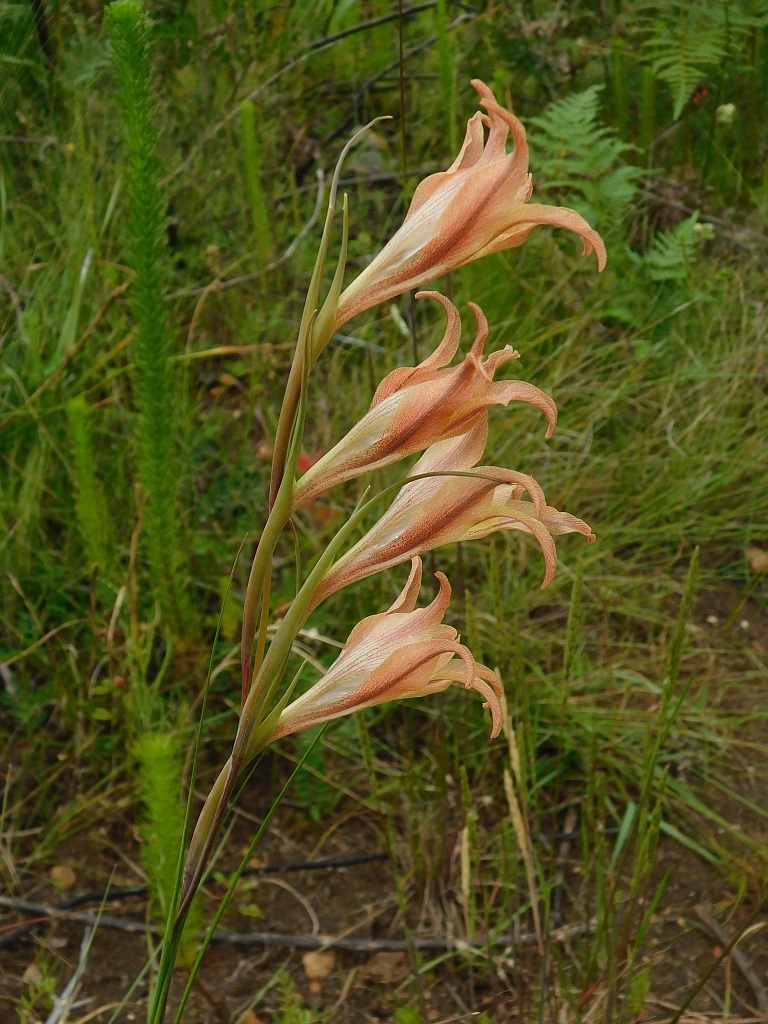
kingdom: Plantae
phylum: Tracheophyta
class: Liliopsida
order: Asparagales
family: Iridaceae
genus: Gladiolus
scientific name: Gladiolus liliaceus
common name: Large brown afrikaner
